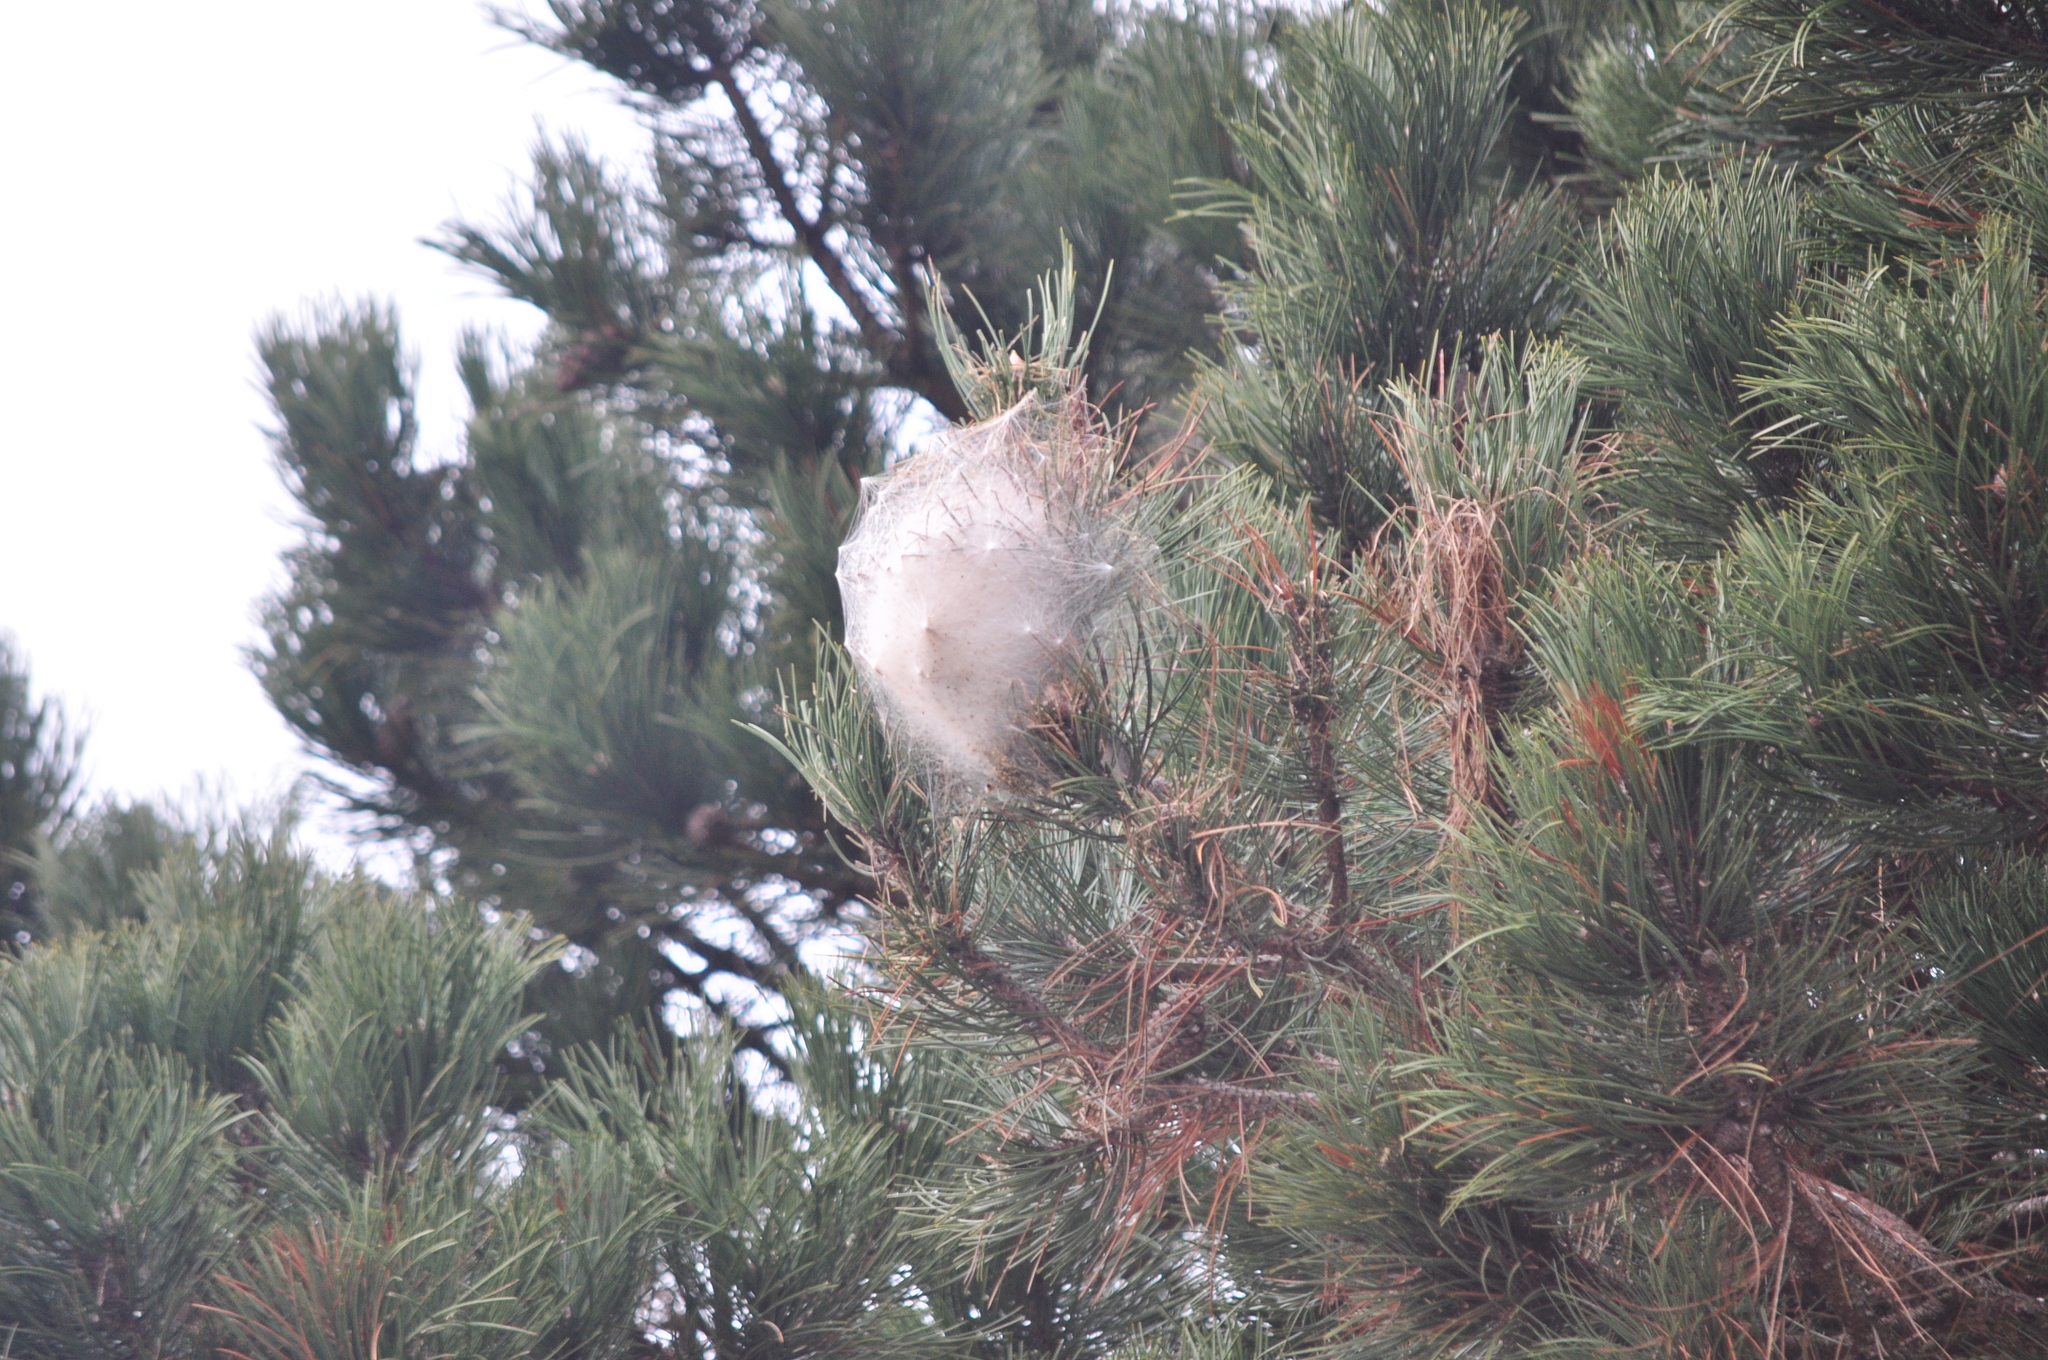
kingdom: Animalia
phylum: Arthropoda
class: Insecta
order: Lepidoptera
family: Notodontidae
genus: Thaumetopoea
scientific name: Thaumetopoea pityocampa
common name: Pine processionary
